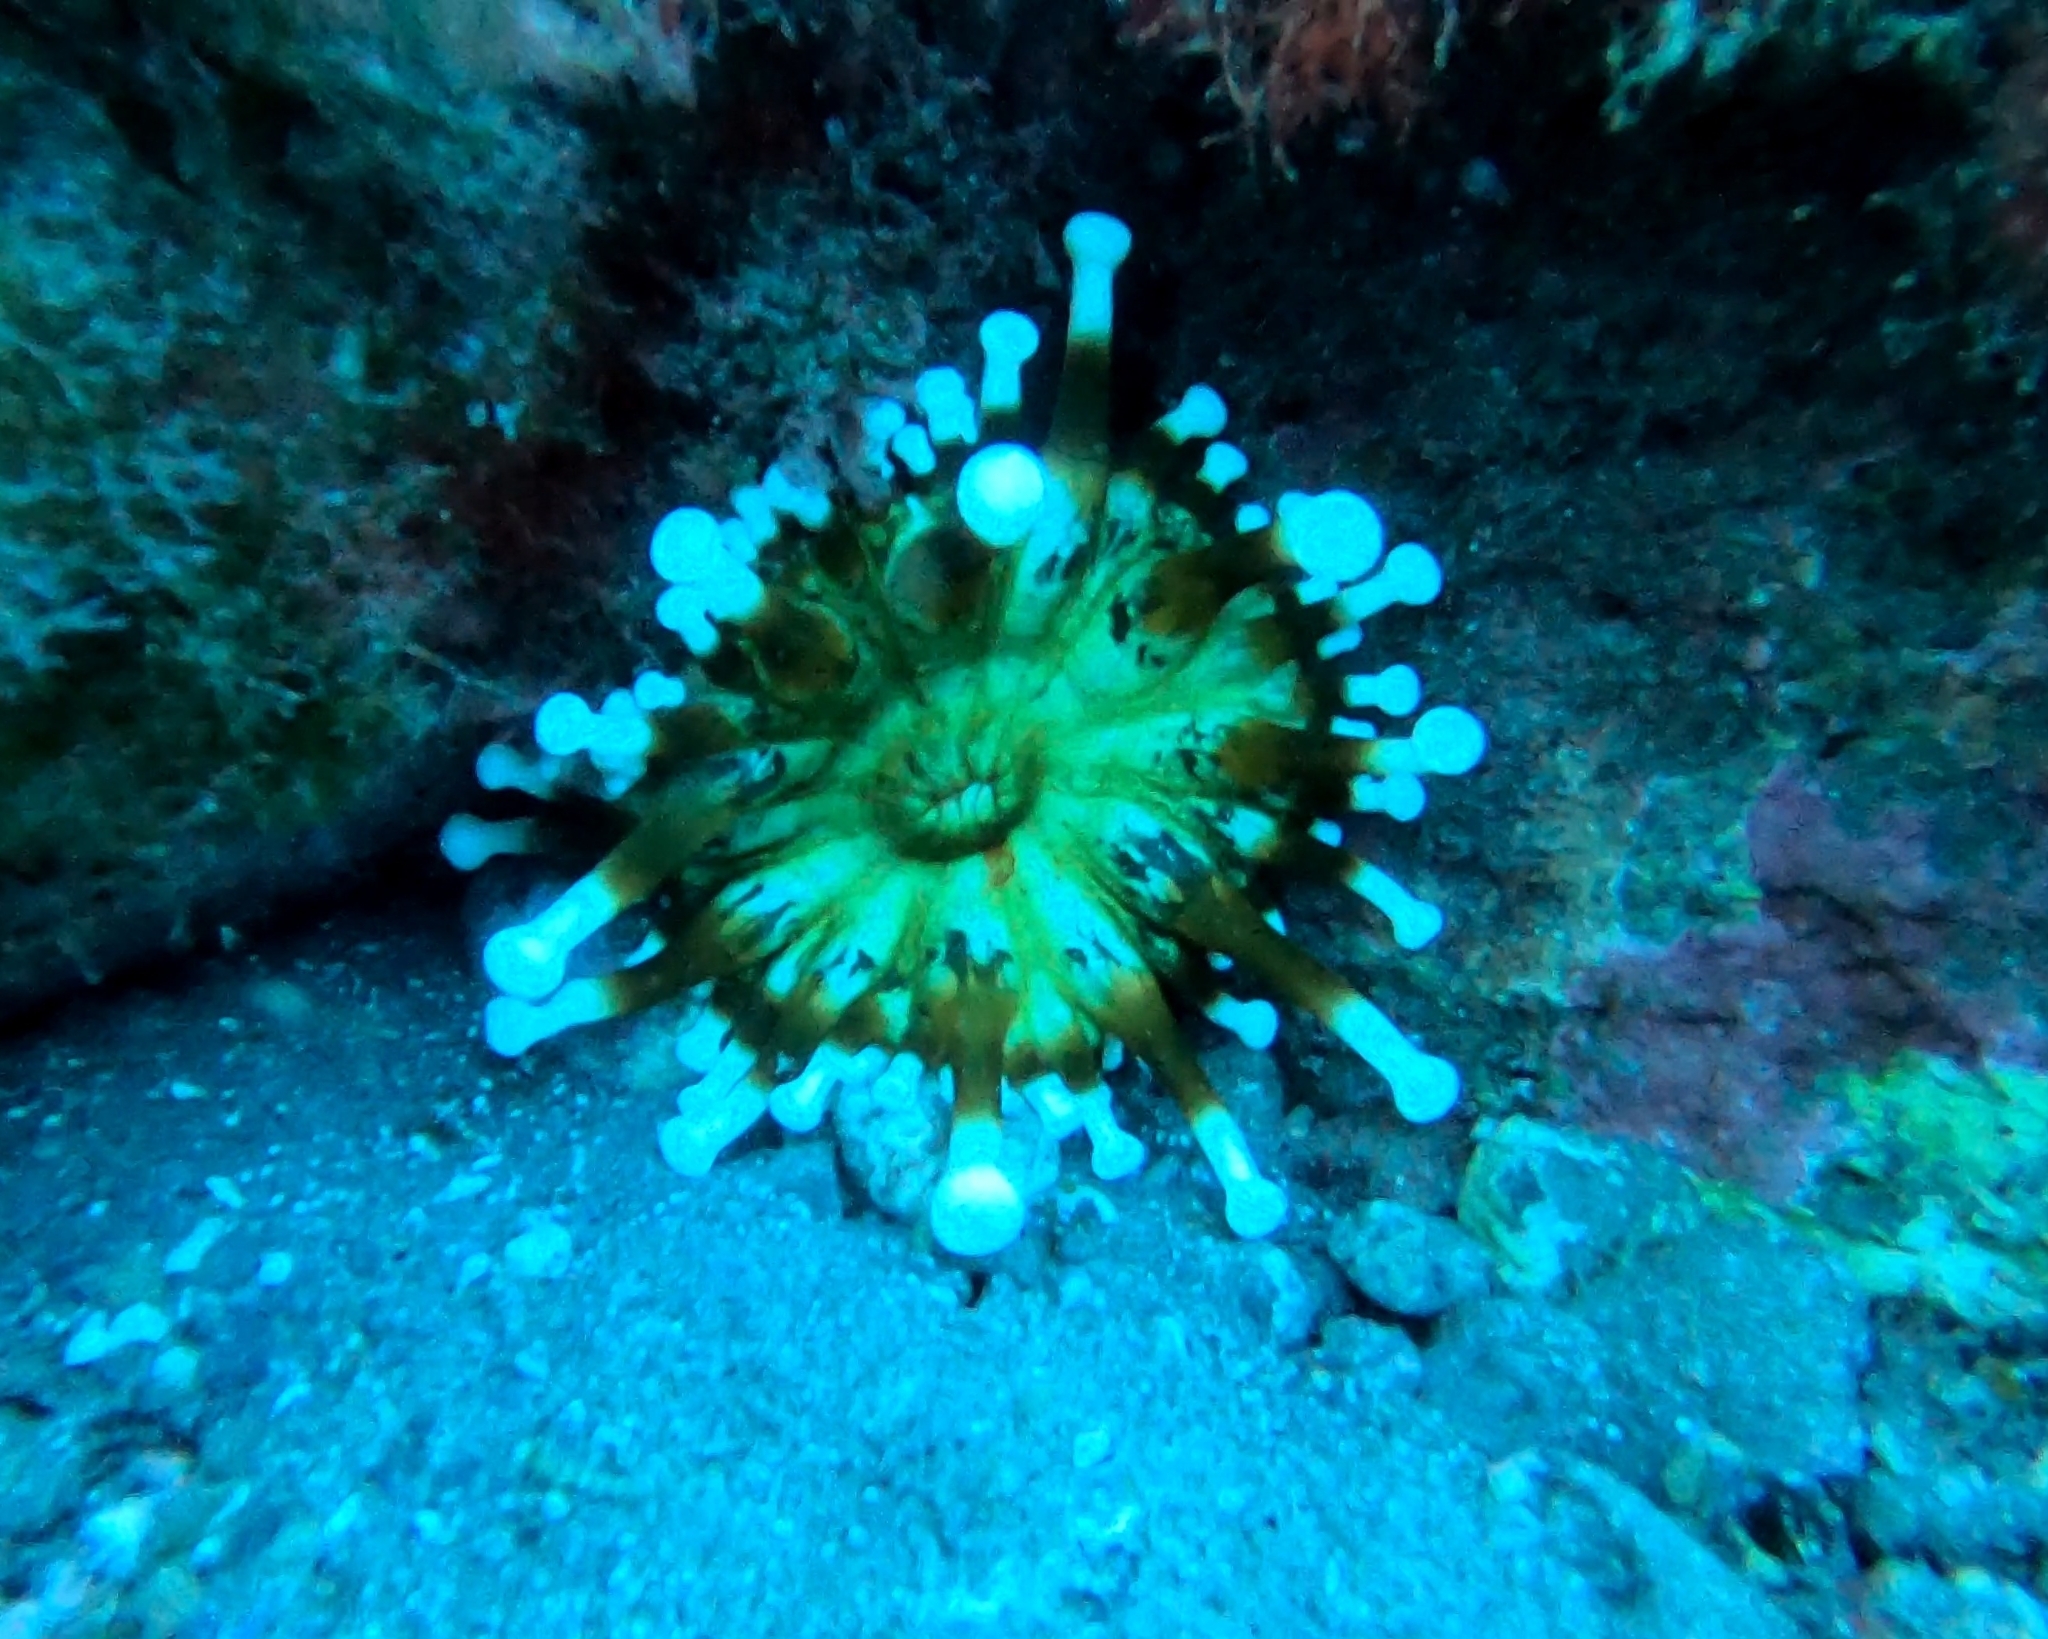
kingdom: Animalia
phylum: Cnidaria
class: Anthozoa
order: Actiniaria
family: Andvakiidae
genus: Telmatactis
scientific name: Telmatactis cricoides
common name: Blunt-tentacled anemone
